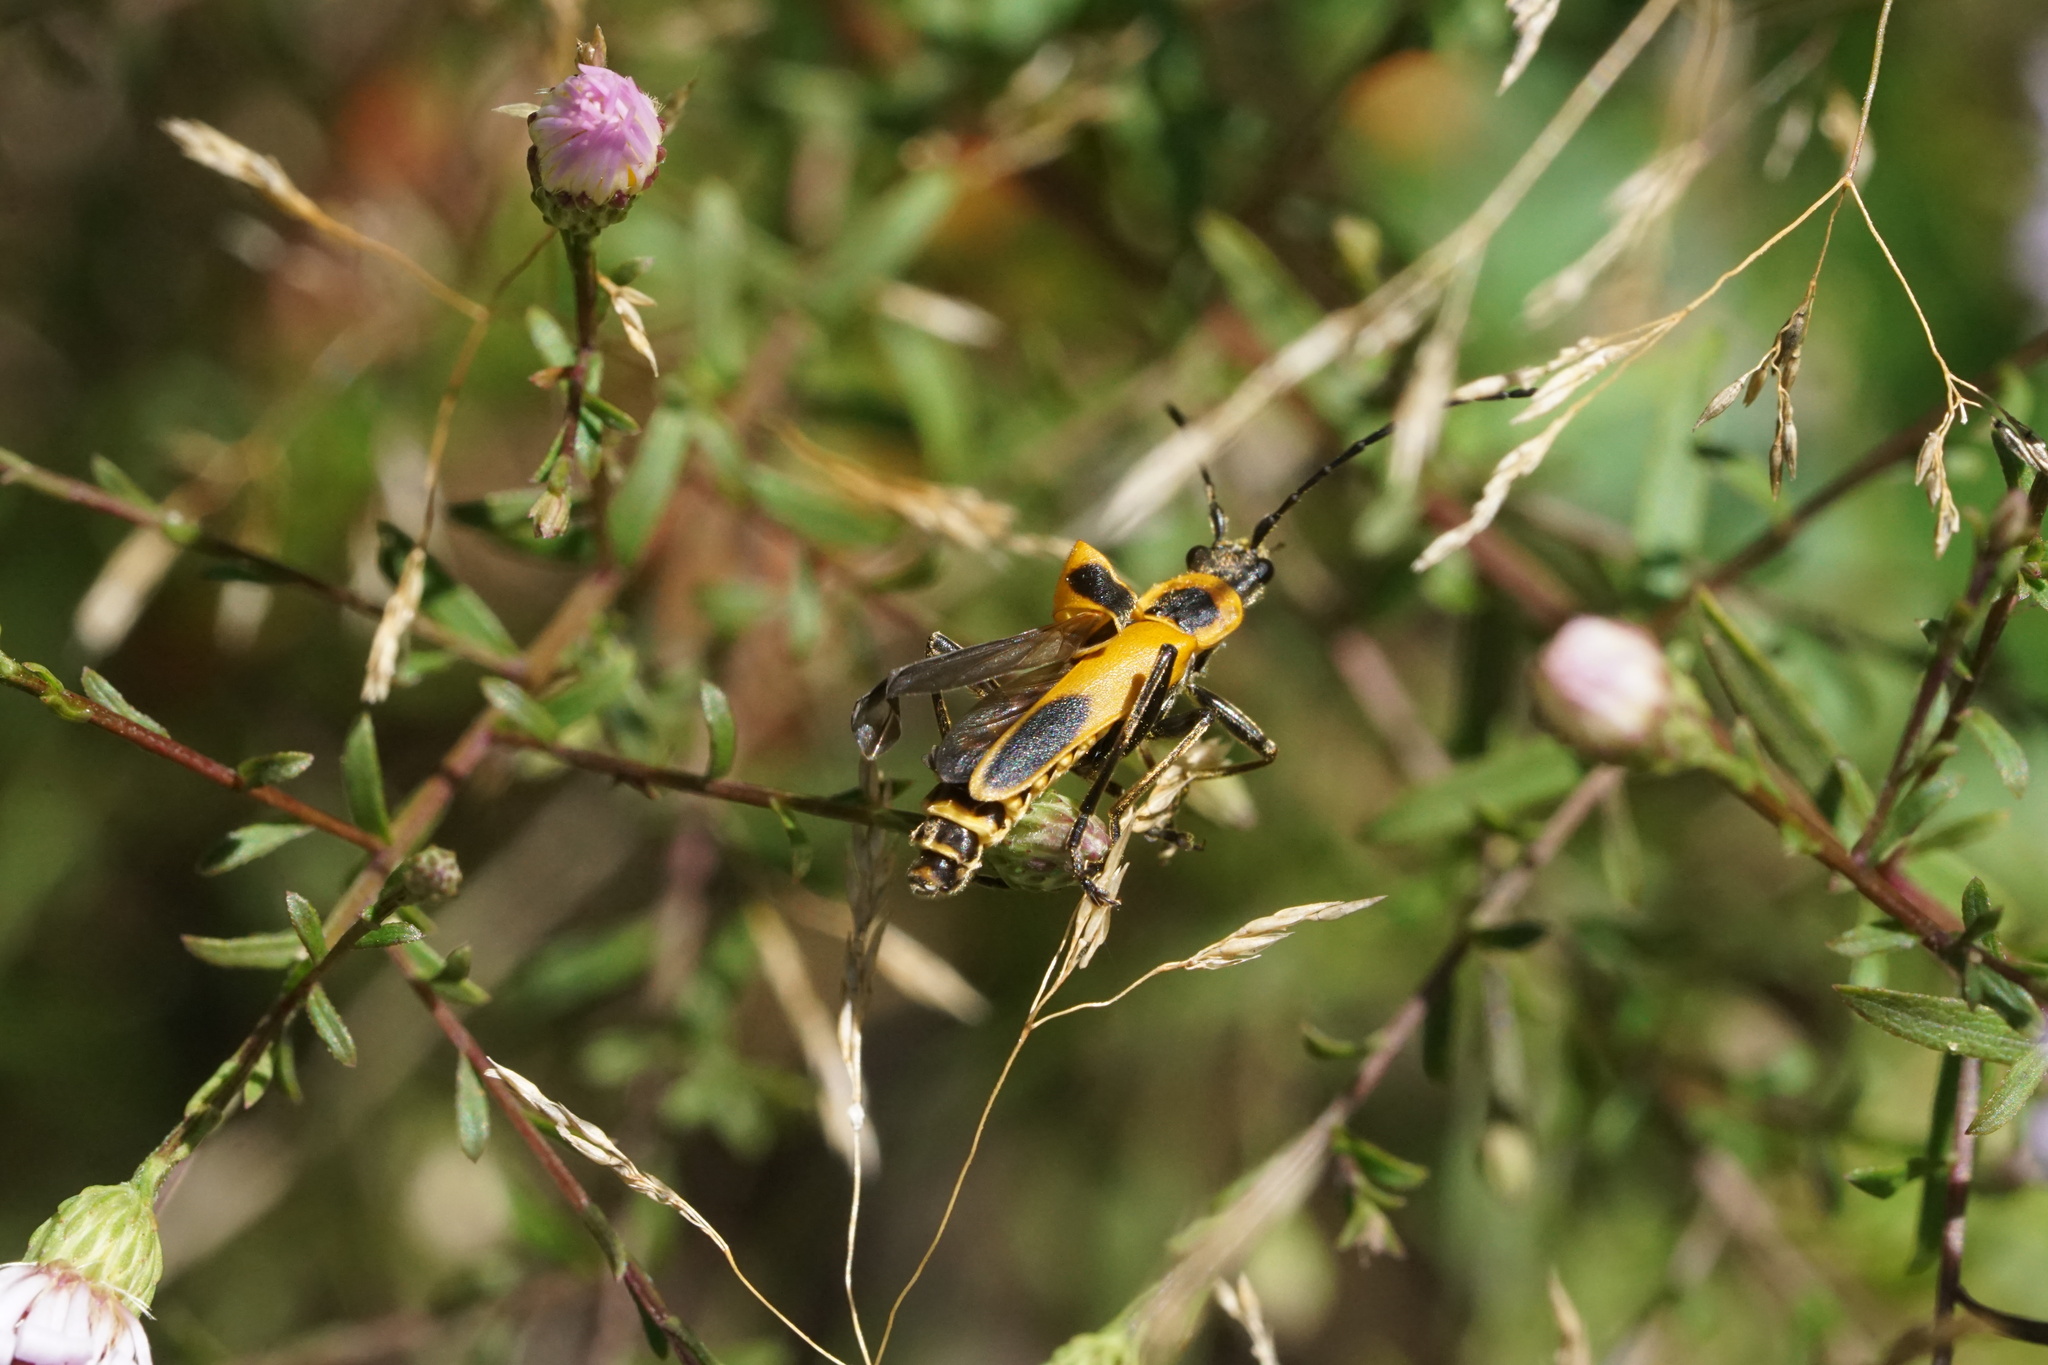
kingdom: Animalia
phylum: Arthropoda
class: Insecta
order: Coleoptera
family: Cantharidae
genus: Chauliognathus
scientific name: Chauliognathus pensylvanicus
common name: Goldenrod soldier beetle
